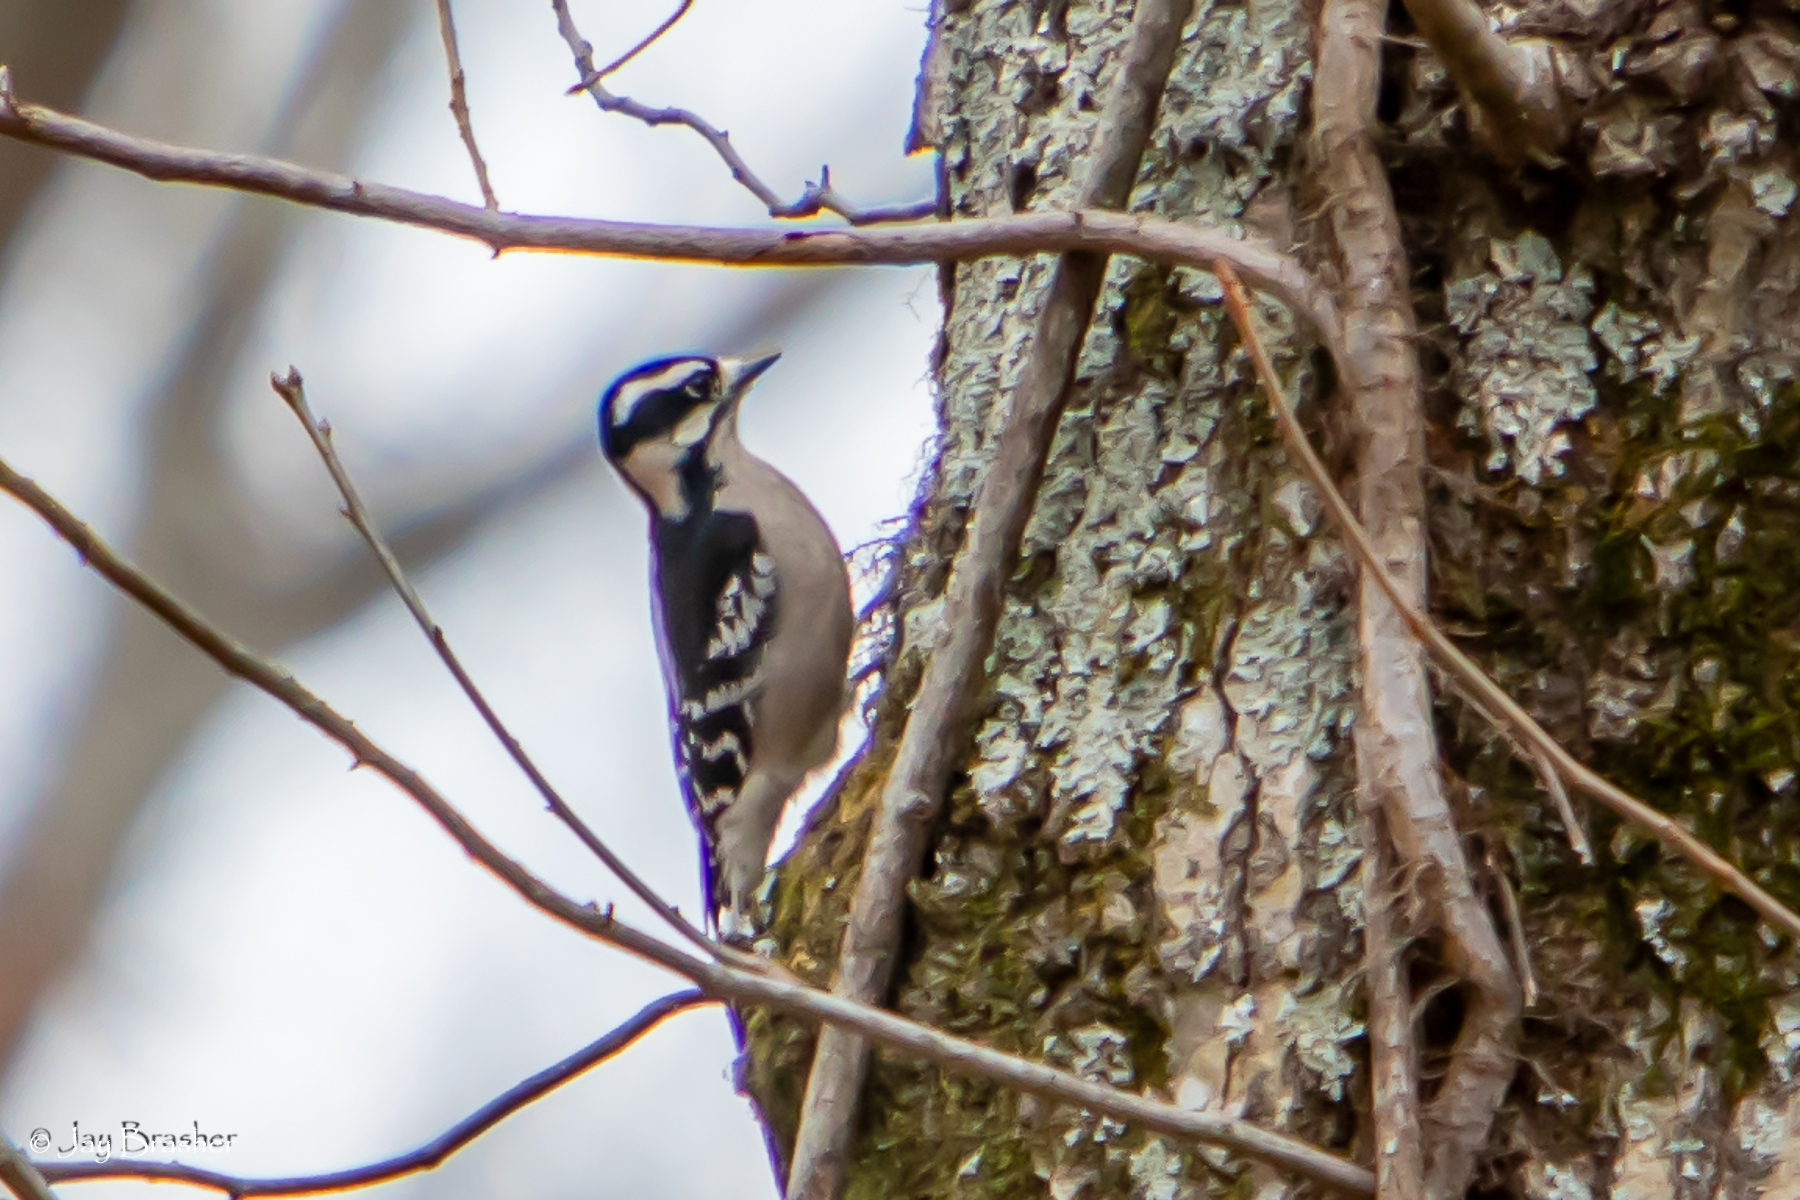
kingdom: Animalia
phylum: Chordata
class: Aves
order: Piciformes
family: Picidae
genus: Dryobates
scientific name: Dryobates pubescens
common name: Downy woodpecker
